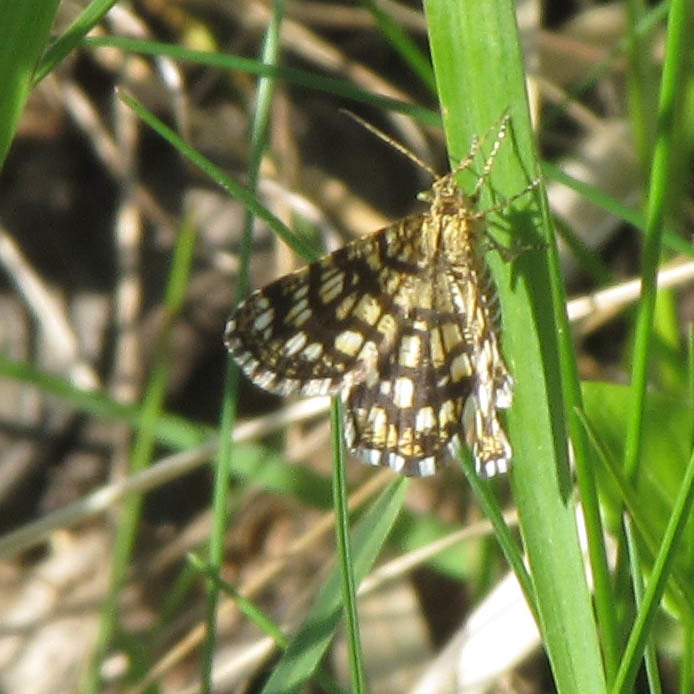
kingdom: Animalia
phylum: Arthropoda
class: Insecta
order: Lepidoptera
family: Geometridae
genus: Chiasmia
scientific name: Chiasmia clathrata
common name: Latticed heath
